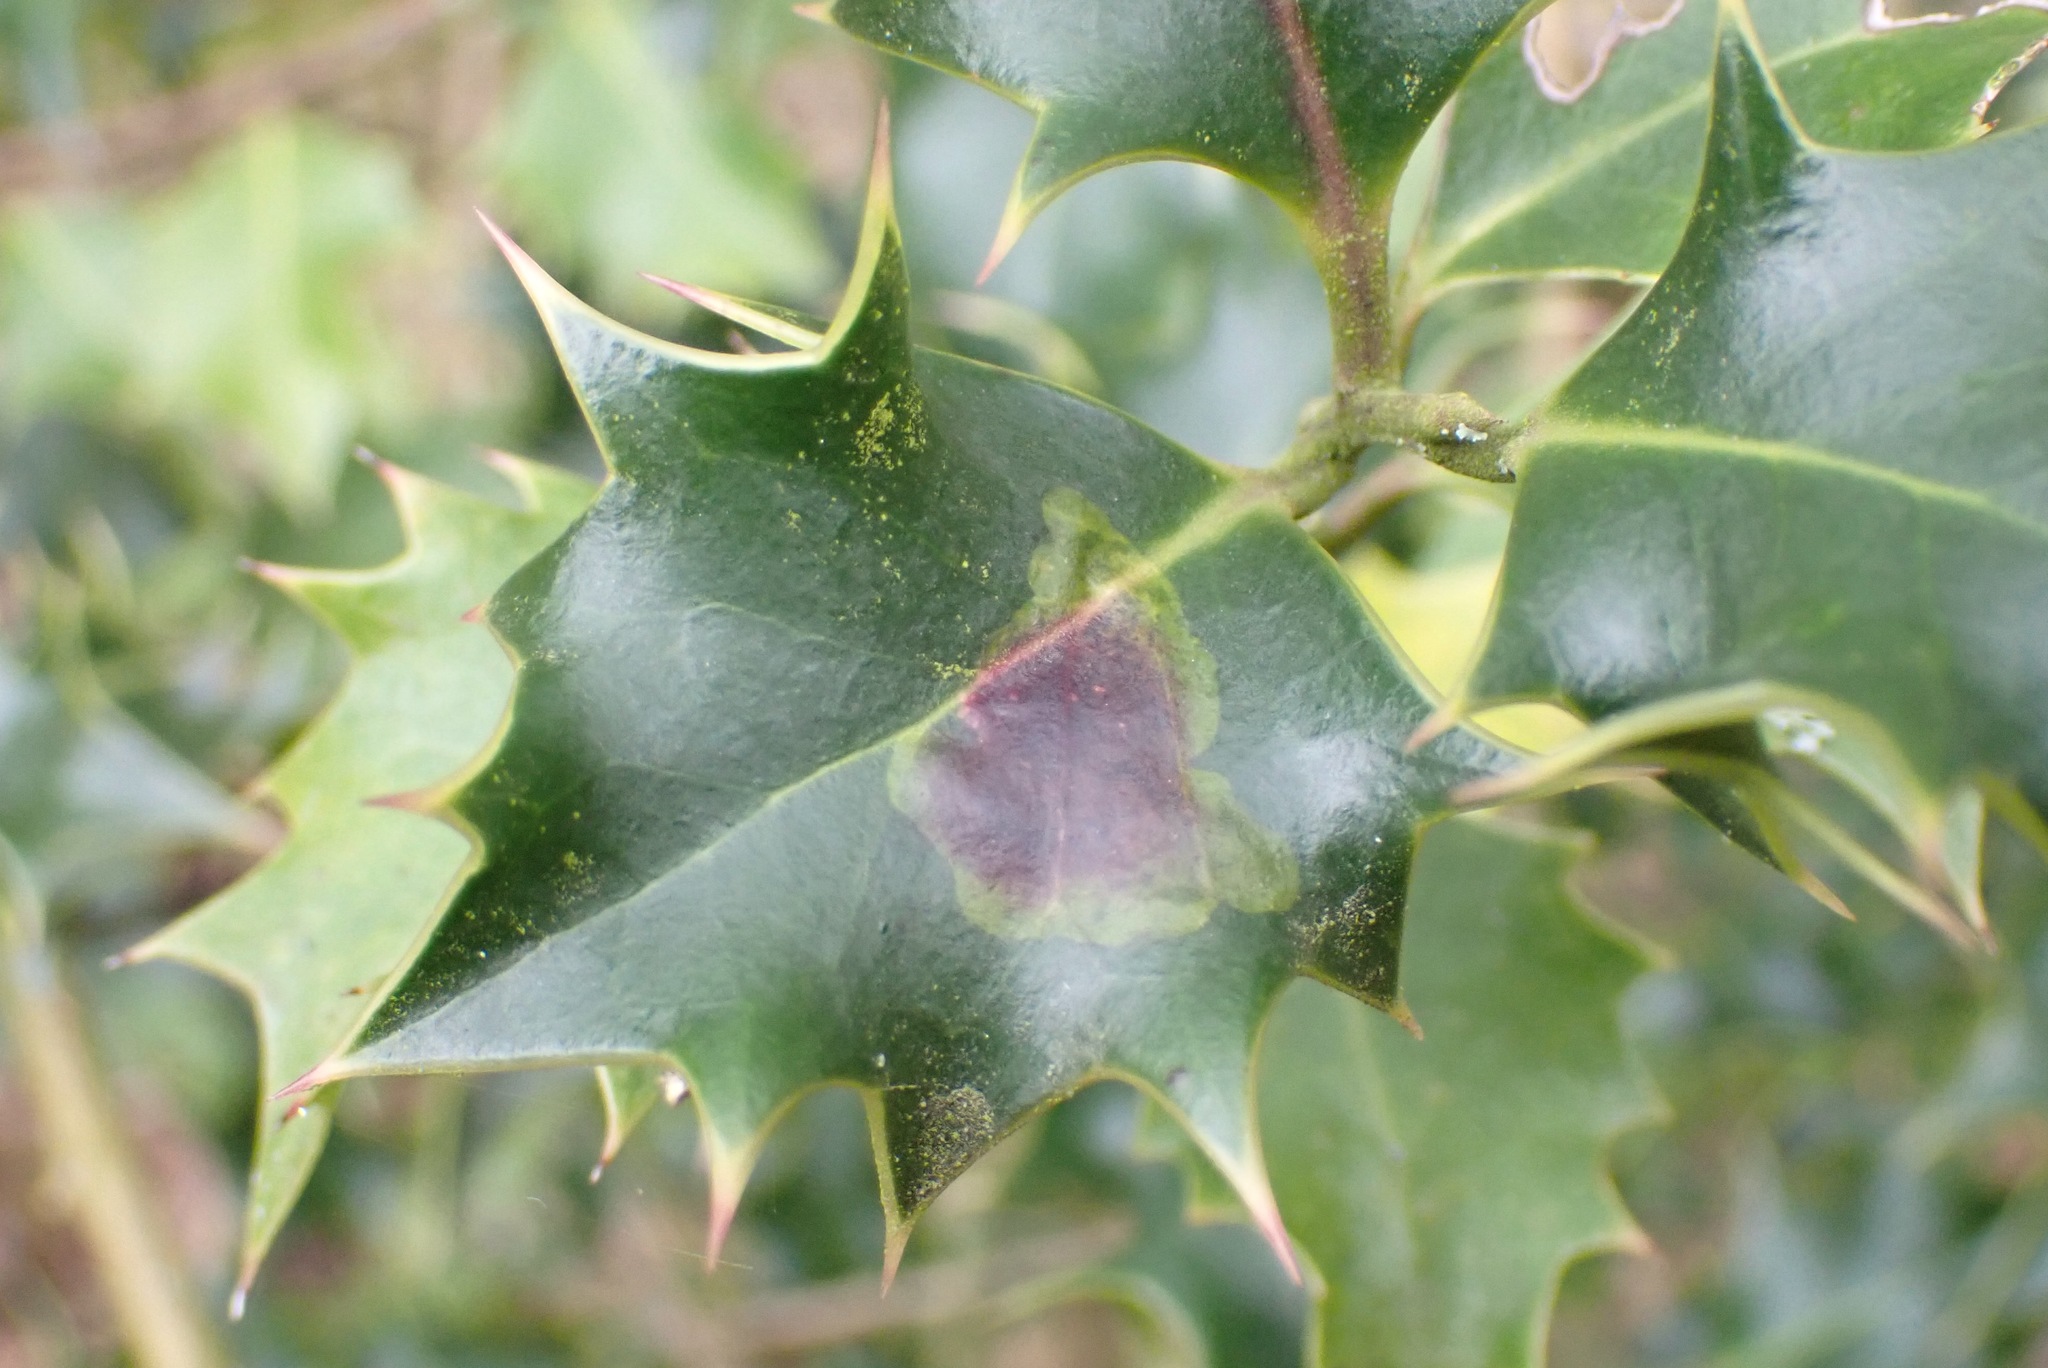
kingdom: Animalia
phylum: Arthropoda
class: Insecta
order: Diptera
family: Agromyzidae
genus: Phytomyza
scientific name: Phytomyza ilicis
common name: Holly leafminer
